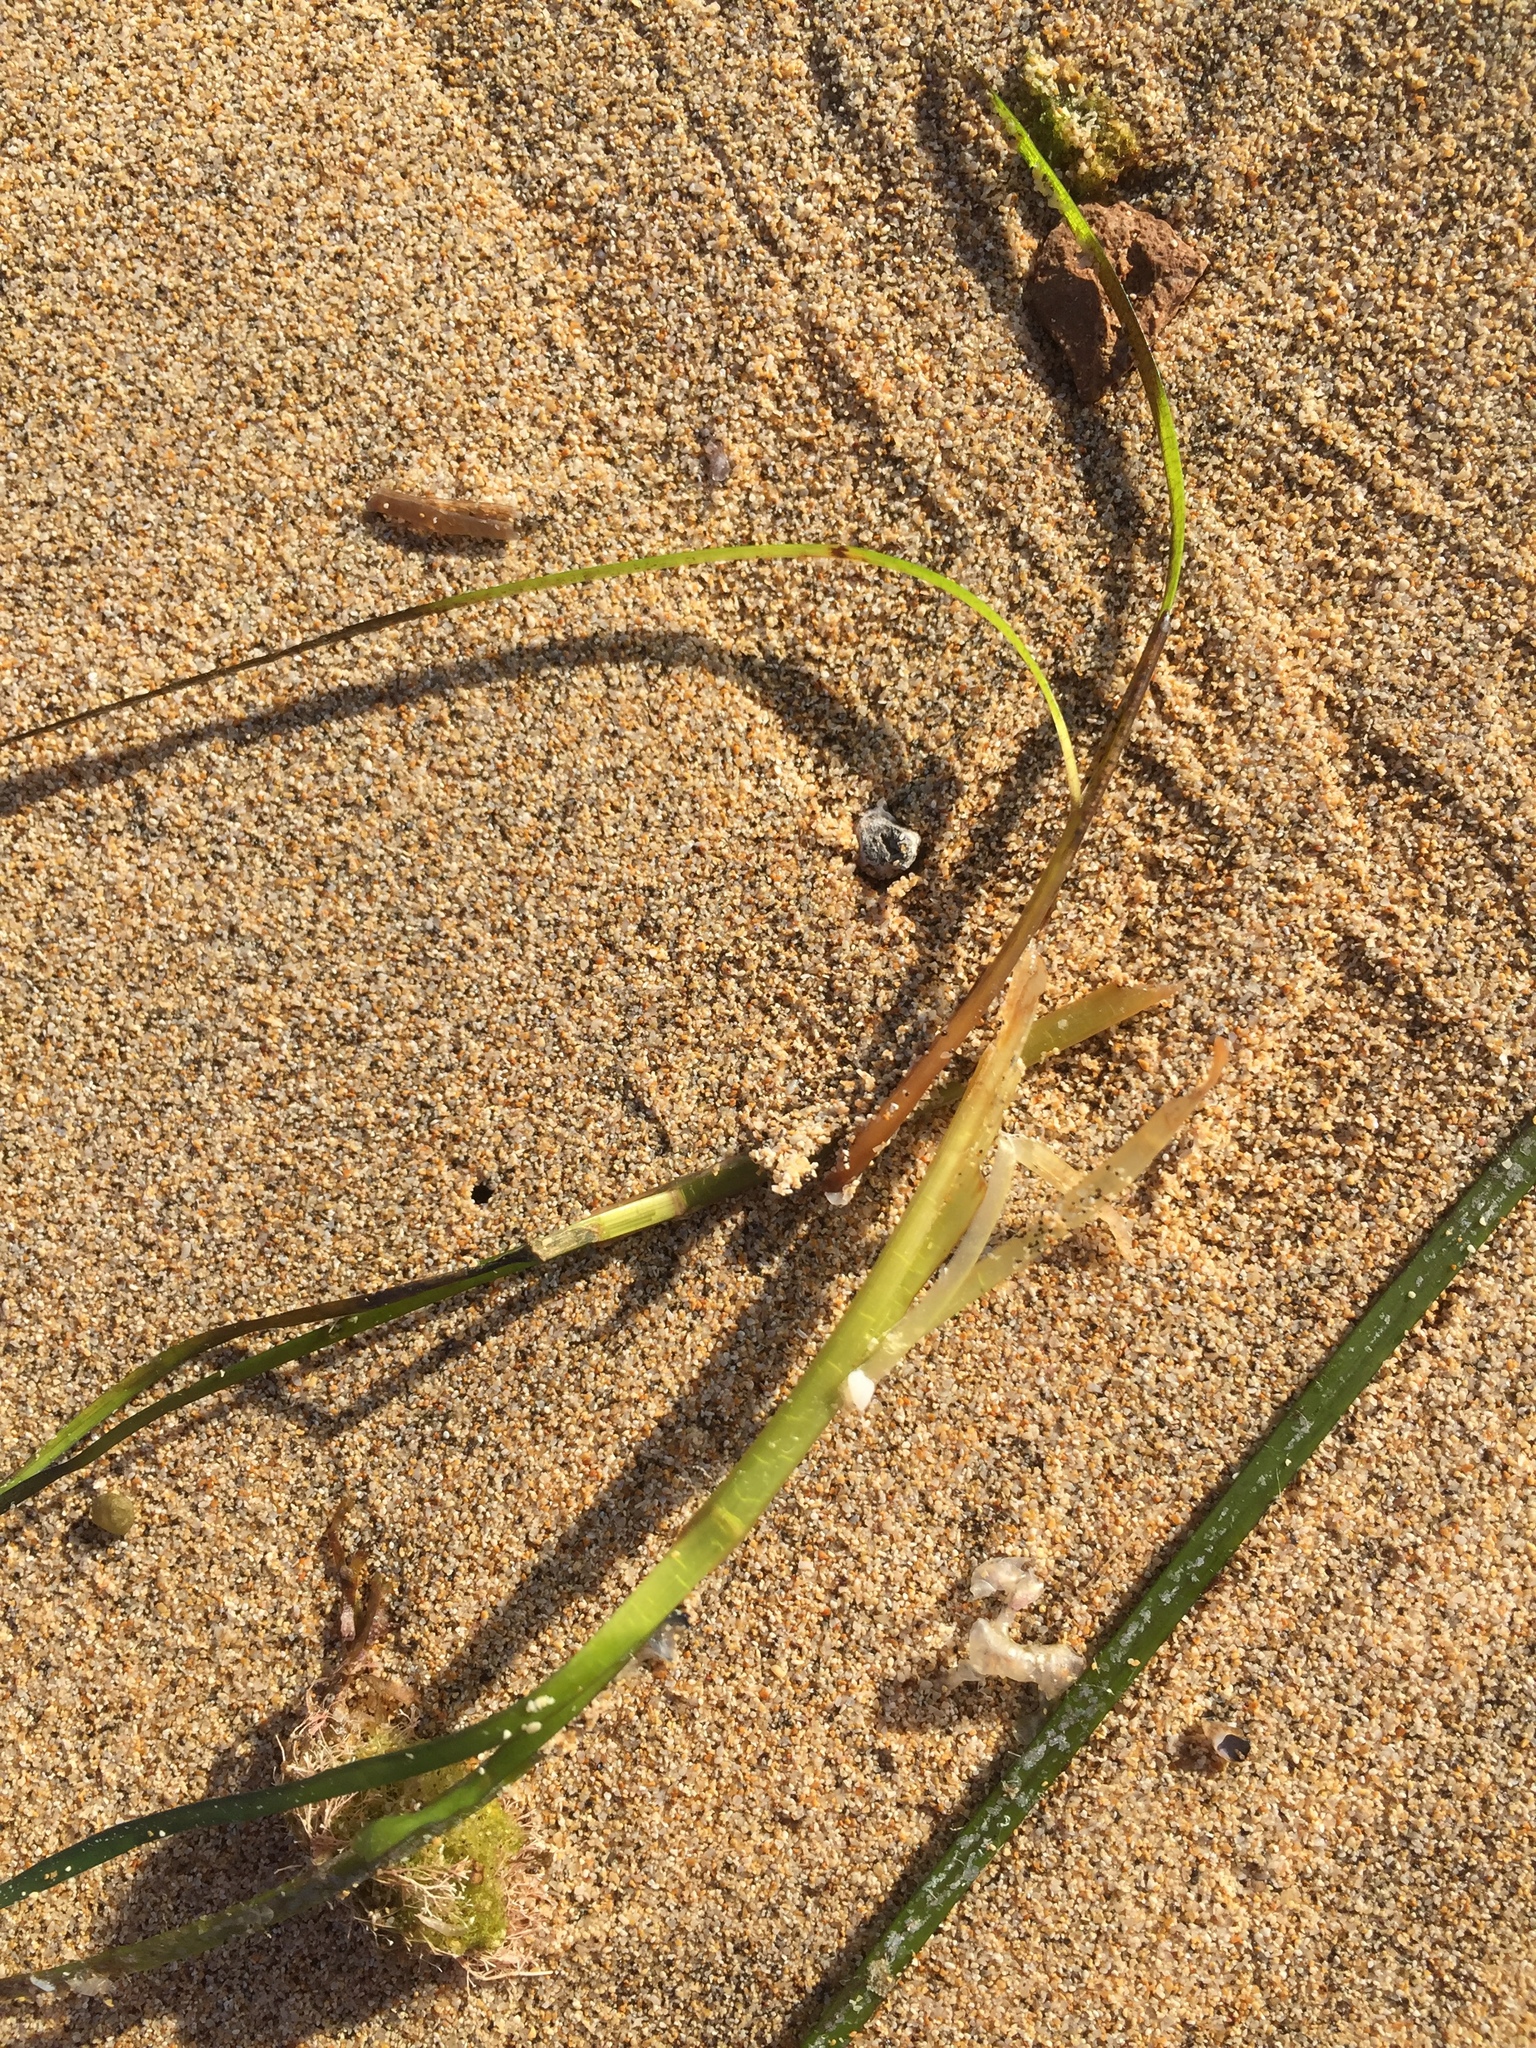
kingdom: Plantae
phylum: Tracheophyta
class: Liliopsida
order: Alismatales
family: Cymodoceaceae
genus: Cymodocea
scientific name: Cymodocea nodosa
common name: Slender seagrass
